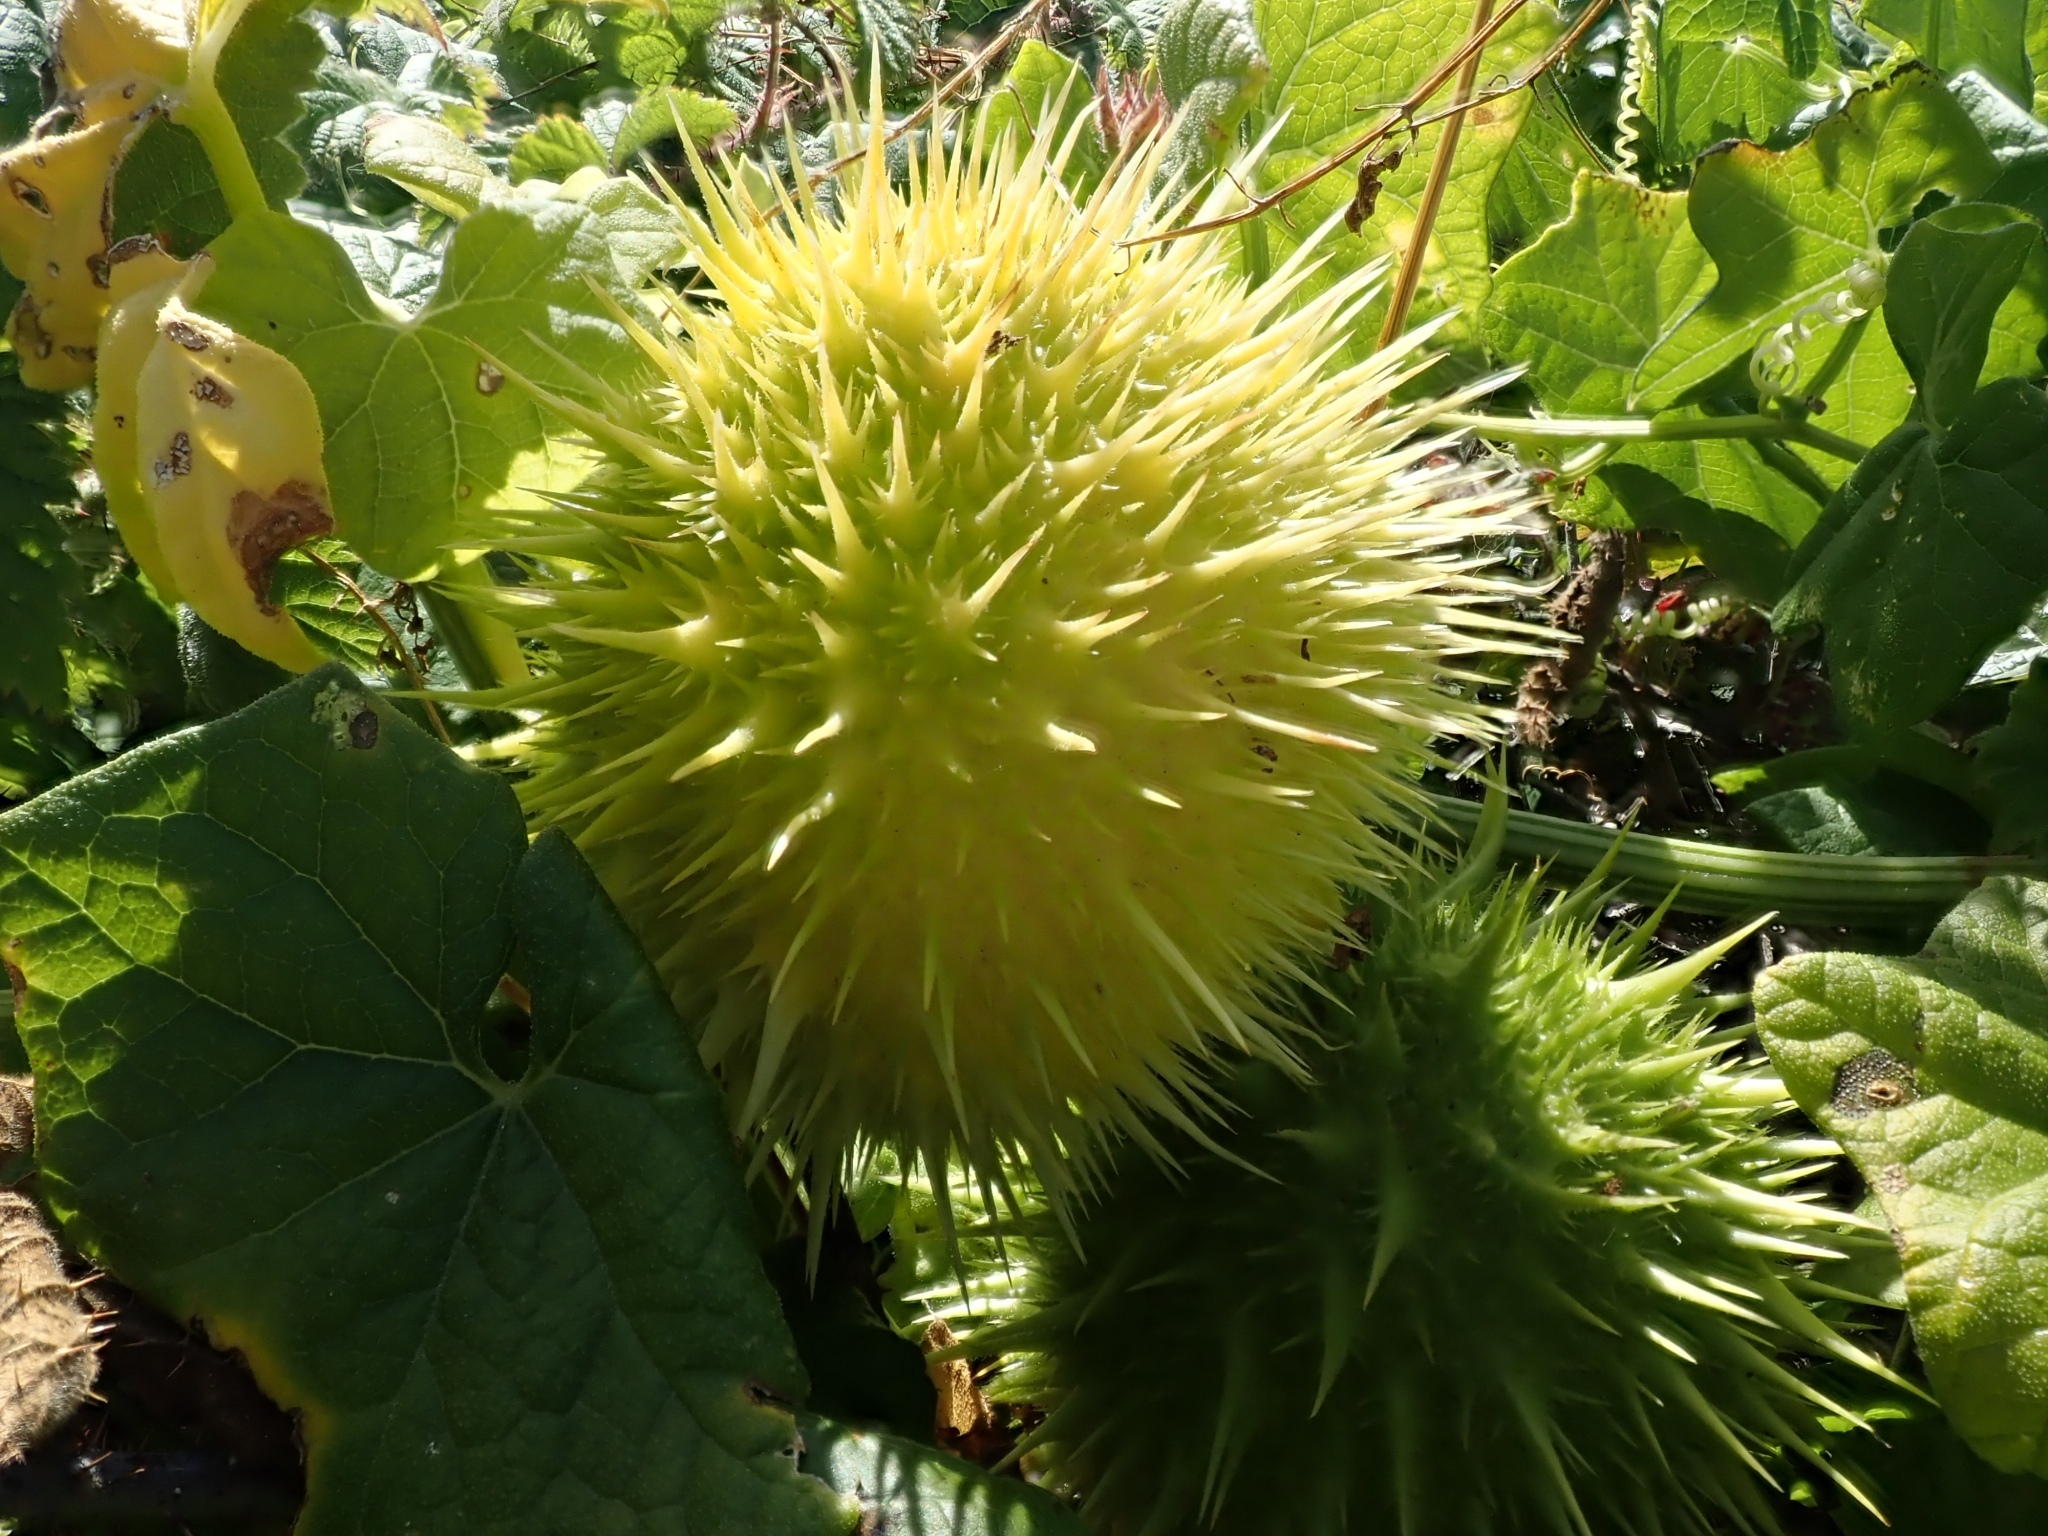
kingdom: Plantae
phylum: Tracheophyta
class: Magnoliopsida
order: Cucurbitales
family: Cucurbitaceae
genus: Marah
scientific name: Marah fabacea
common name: California manroot
